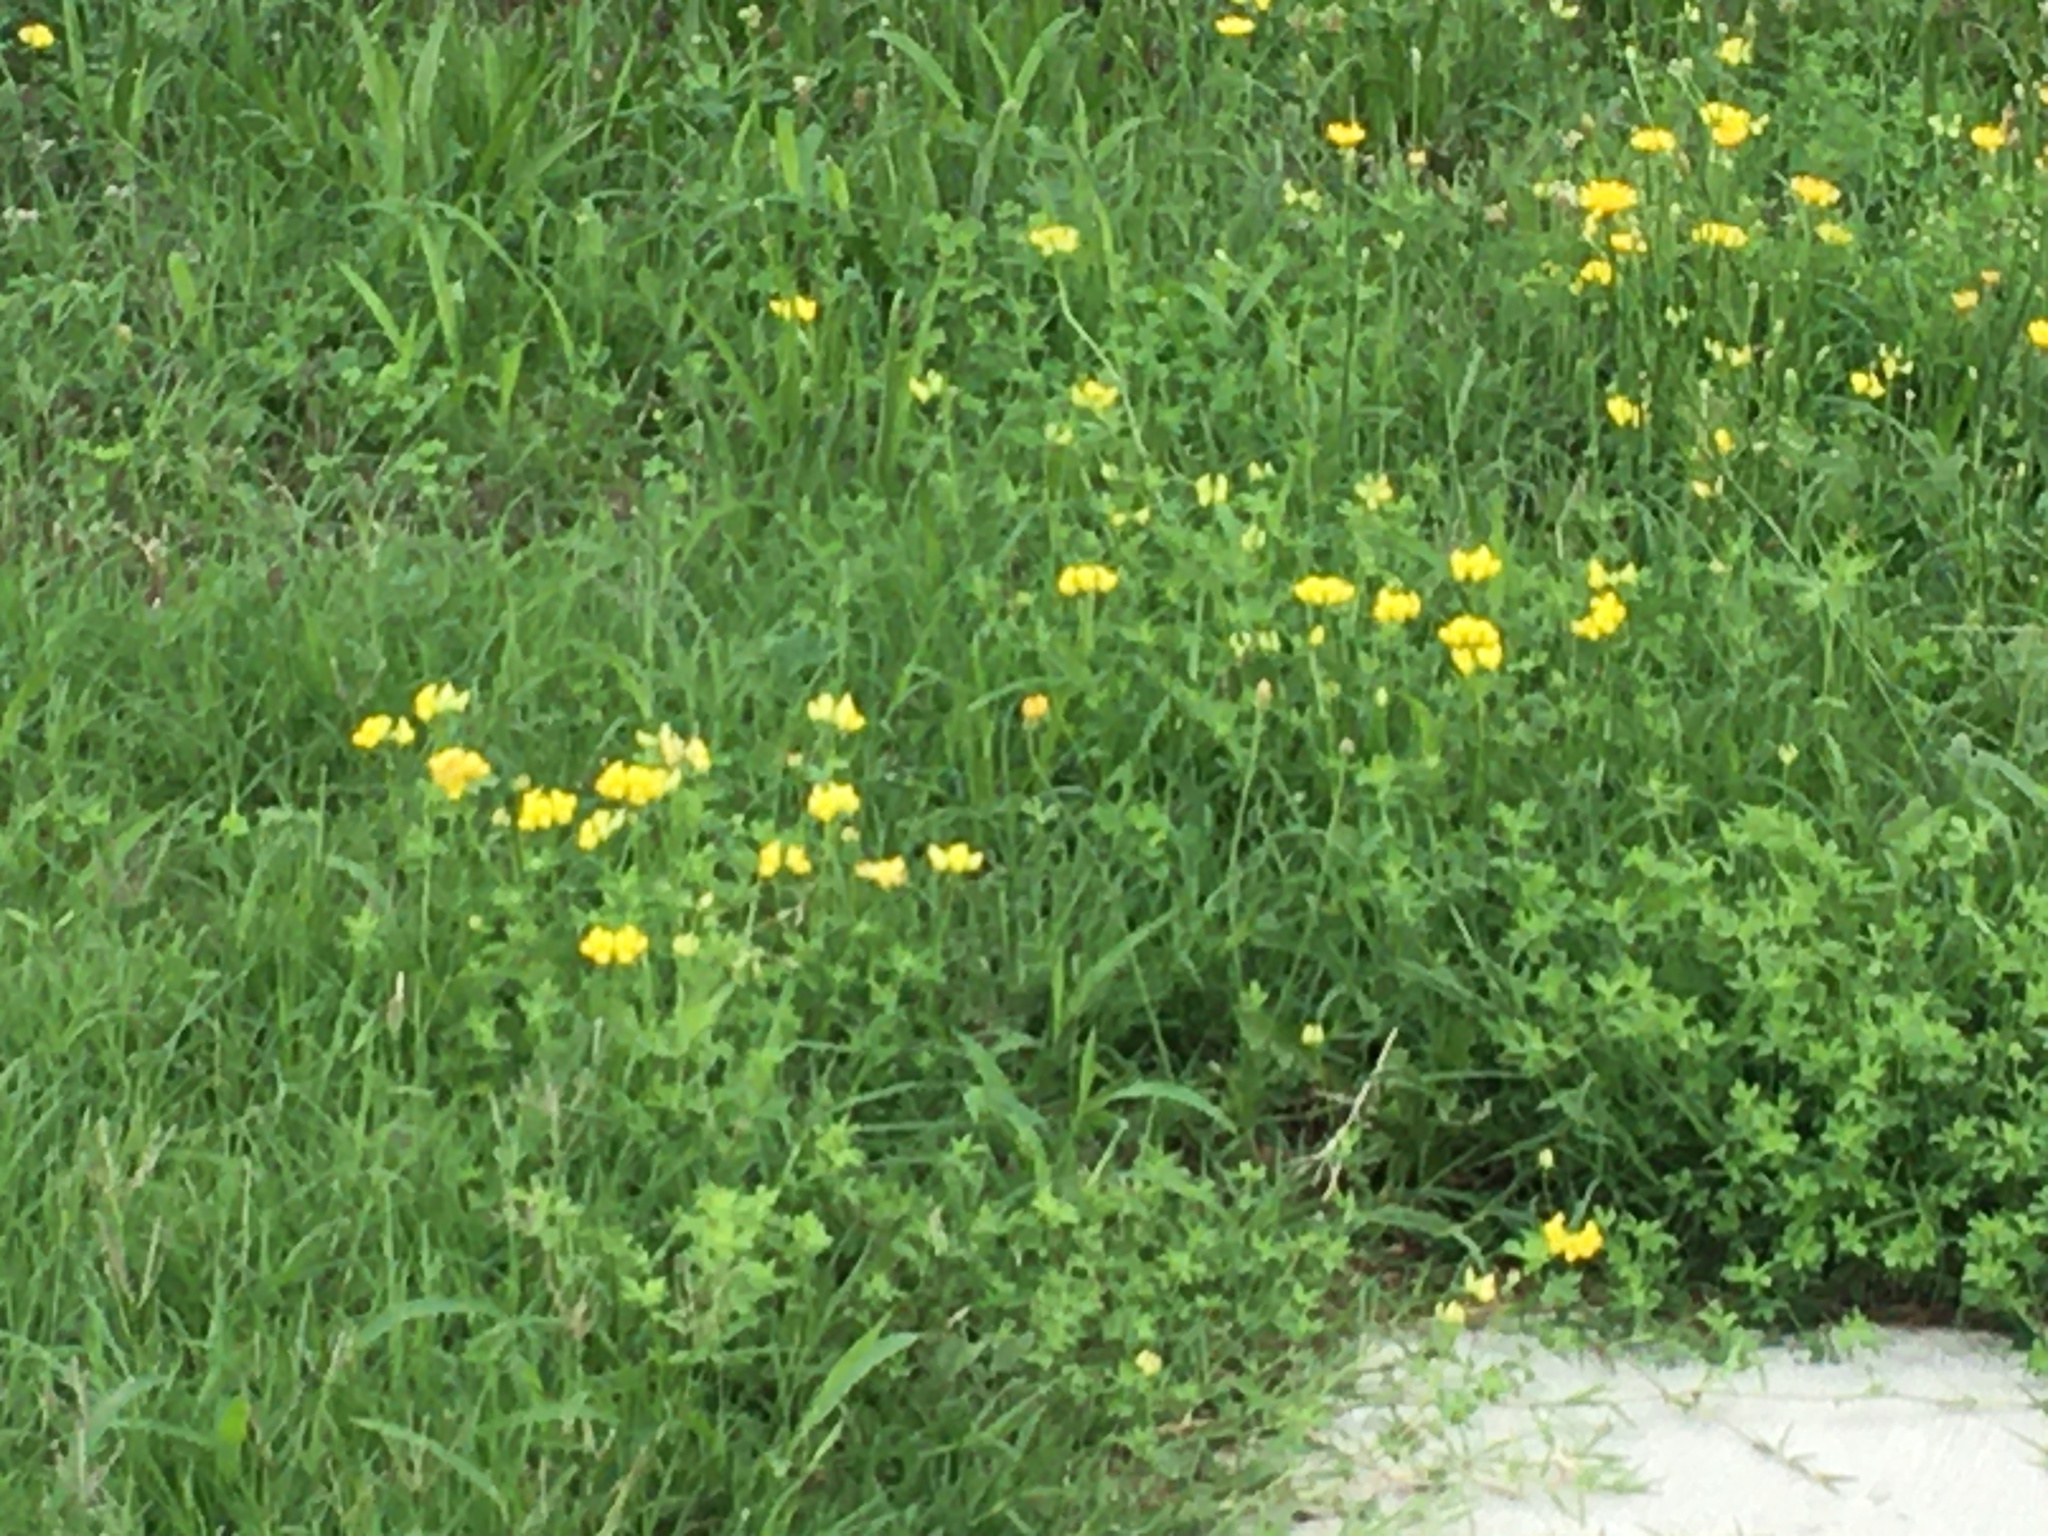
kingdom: Plantae
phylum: Tracheophyta
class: Magnoliopsida
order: Fabales
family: Fabaceae
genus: Lotus
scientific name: Lotus corniculatus
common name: Common bird's-foot-trefoil
